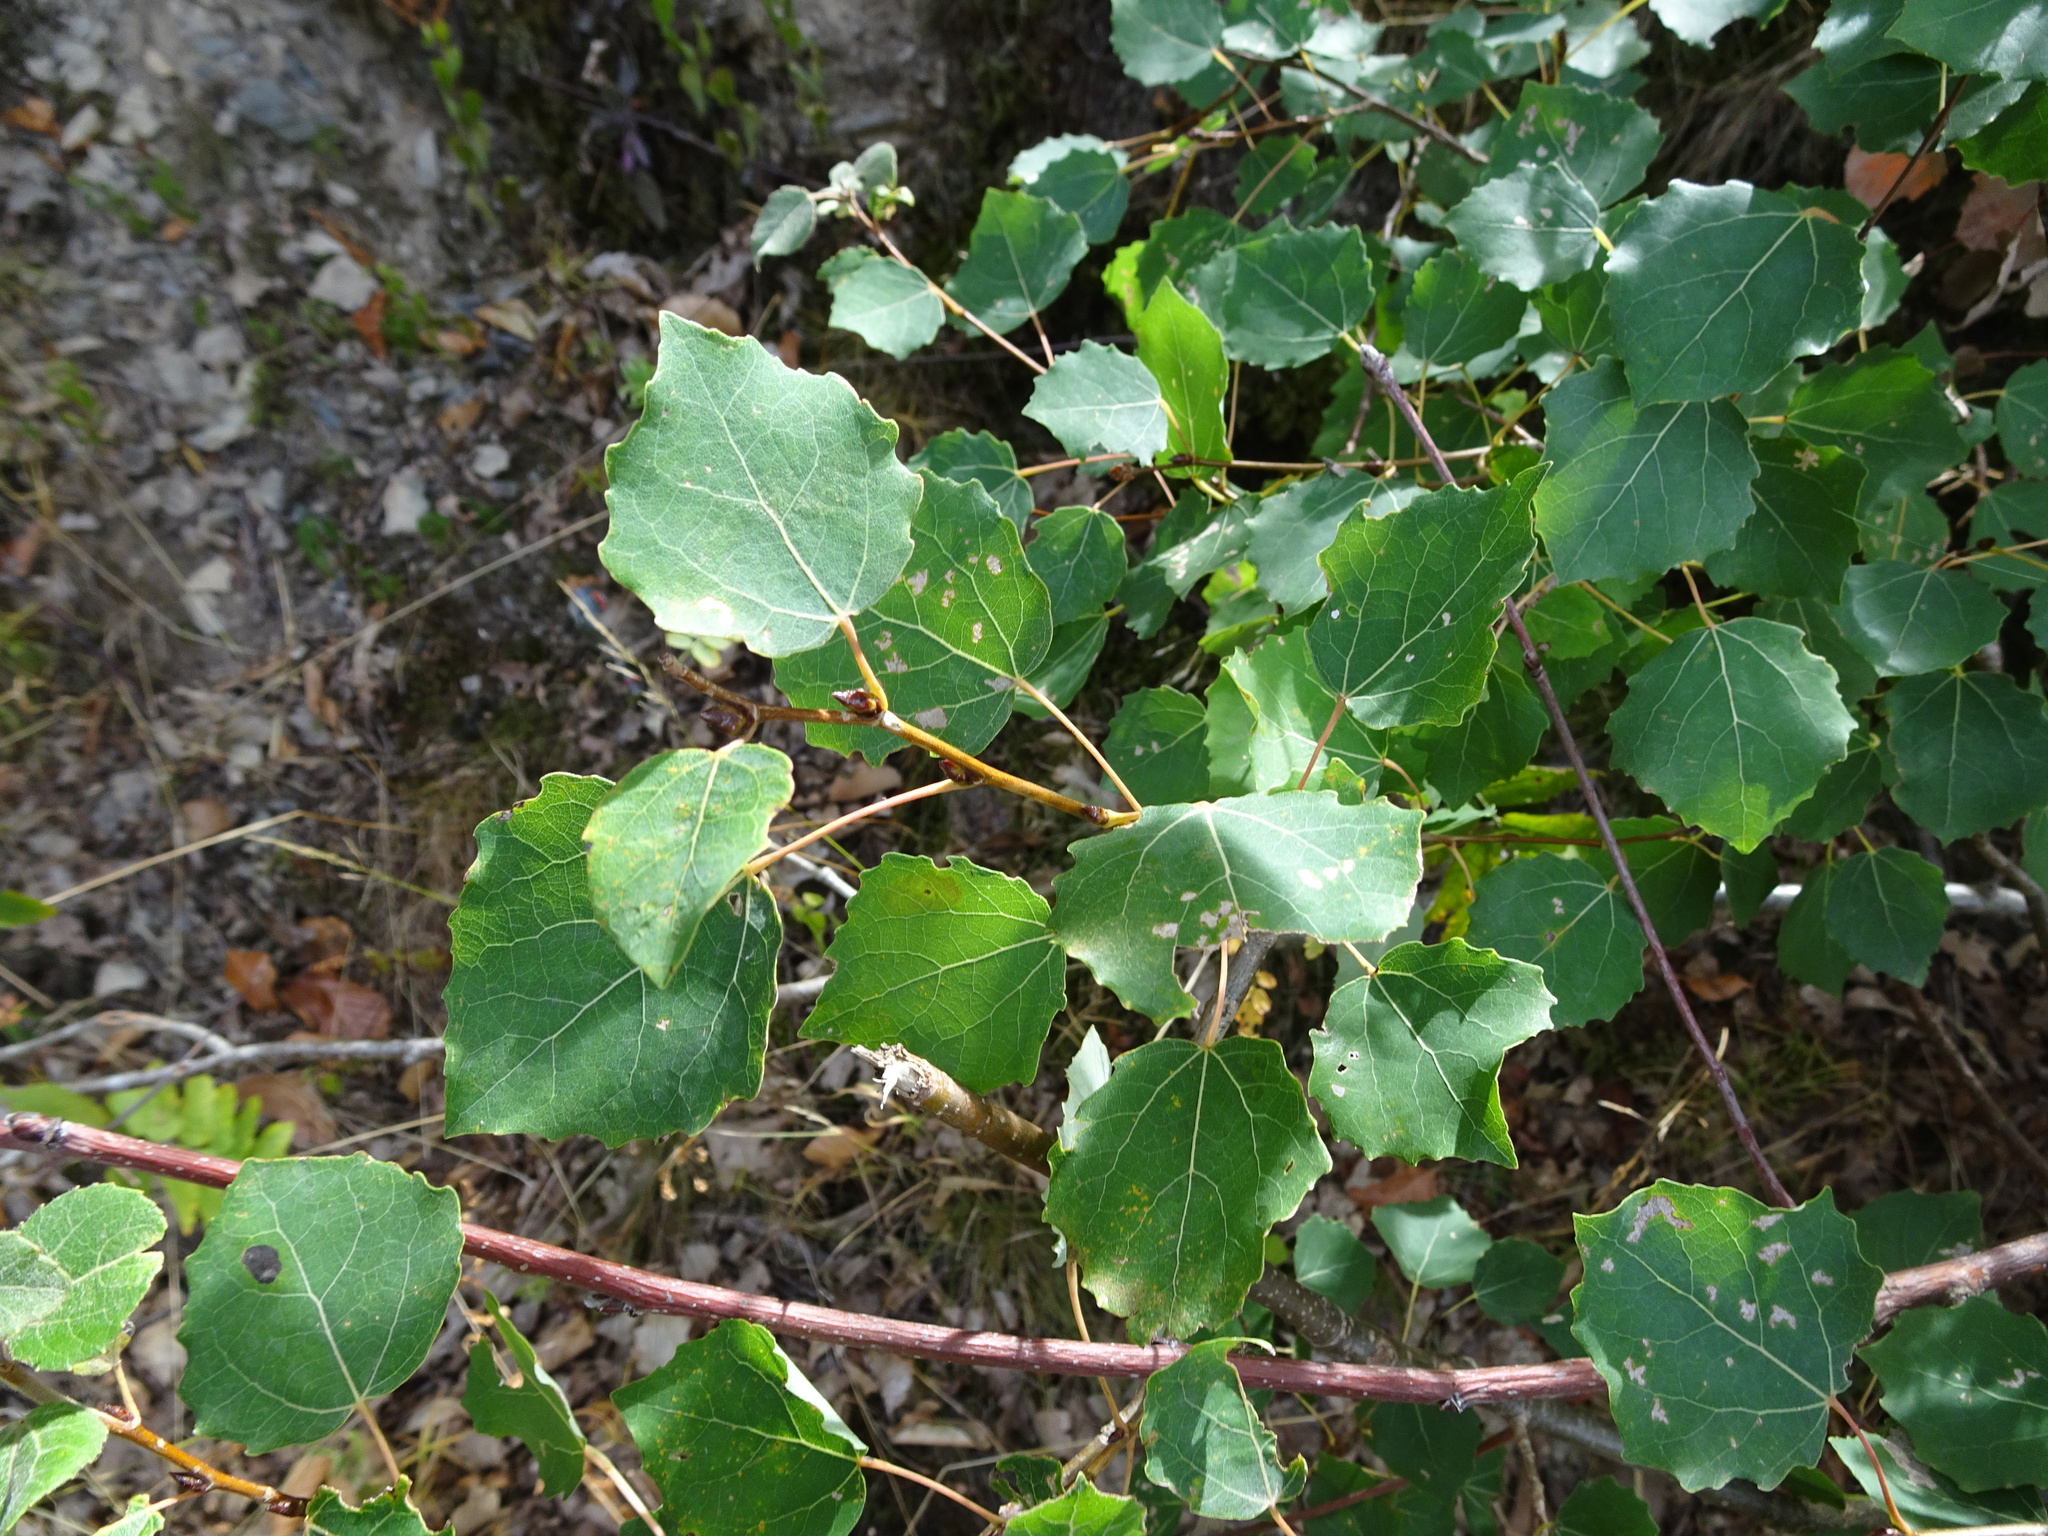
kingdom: Plantae
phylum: Tracheophyta
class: Magnoliopsida
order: Malpighiales
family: Salicaceae
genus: Populus
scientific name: Populus tremula
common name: European aspen
